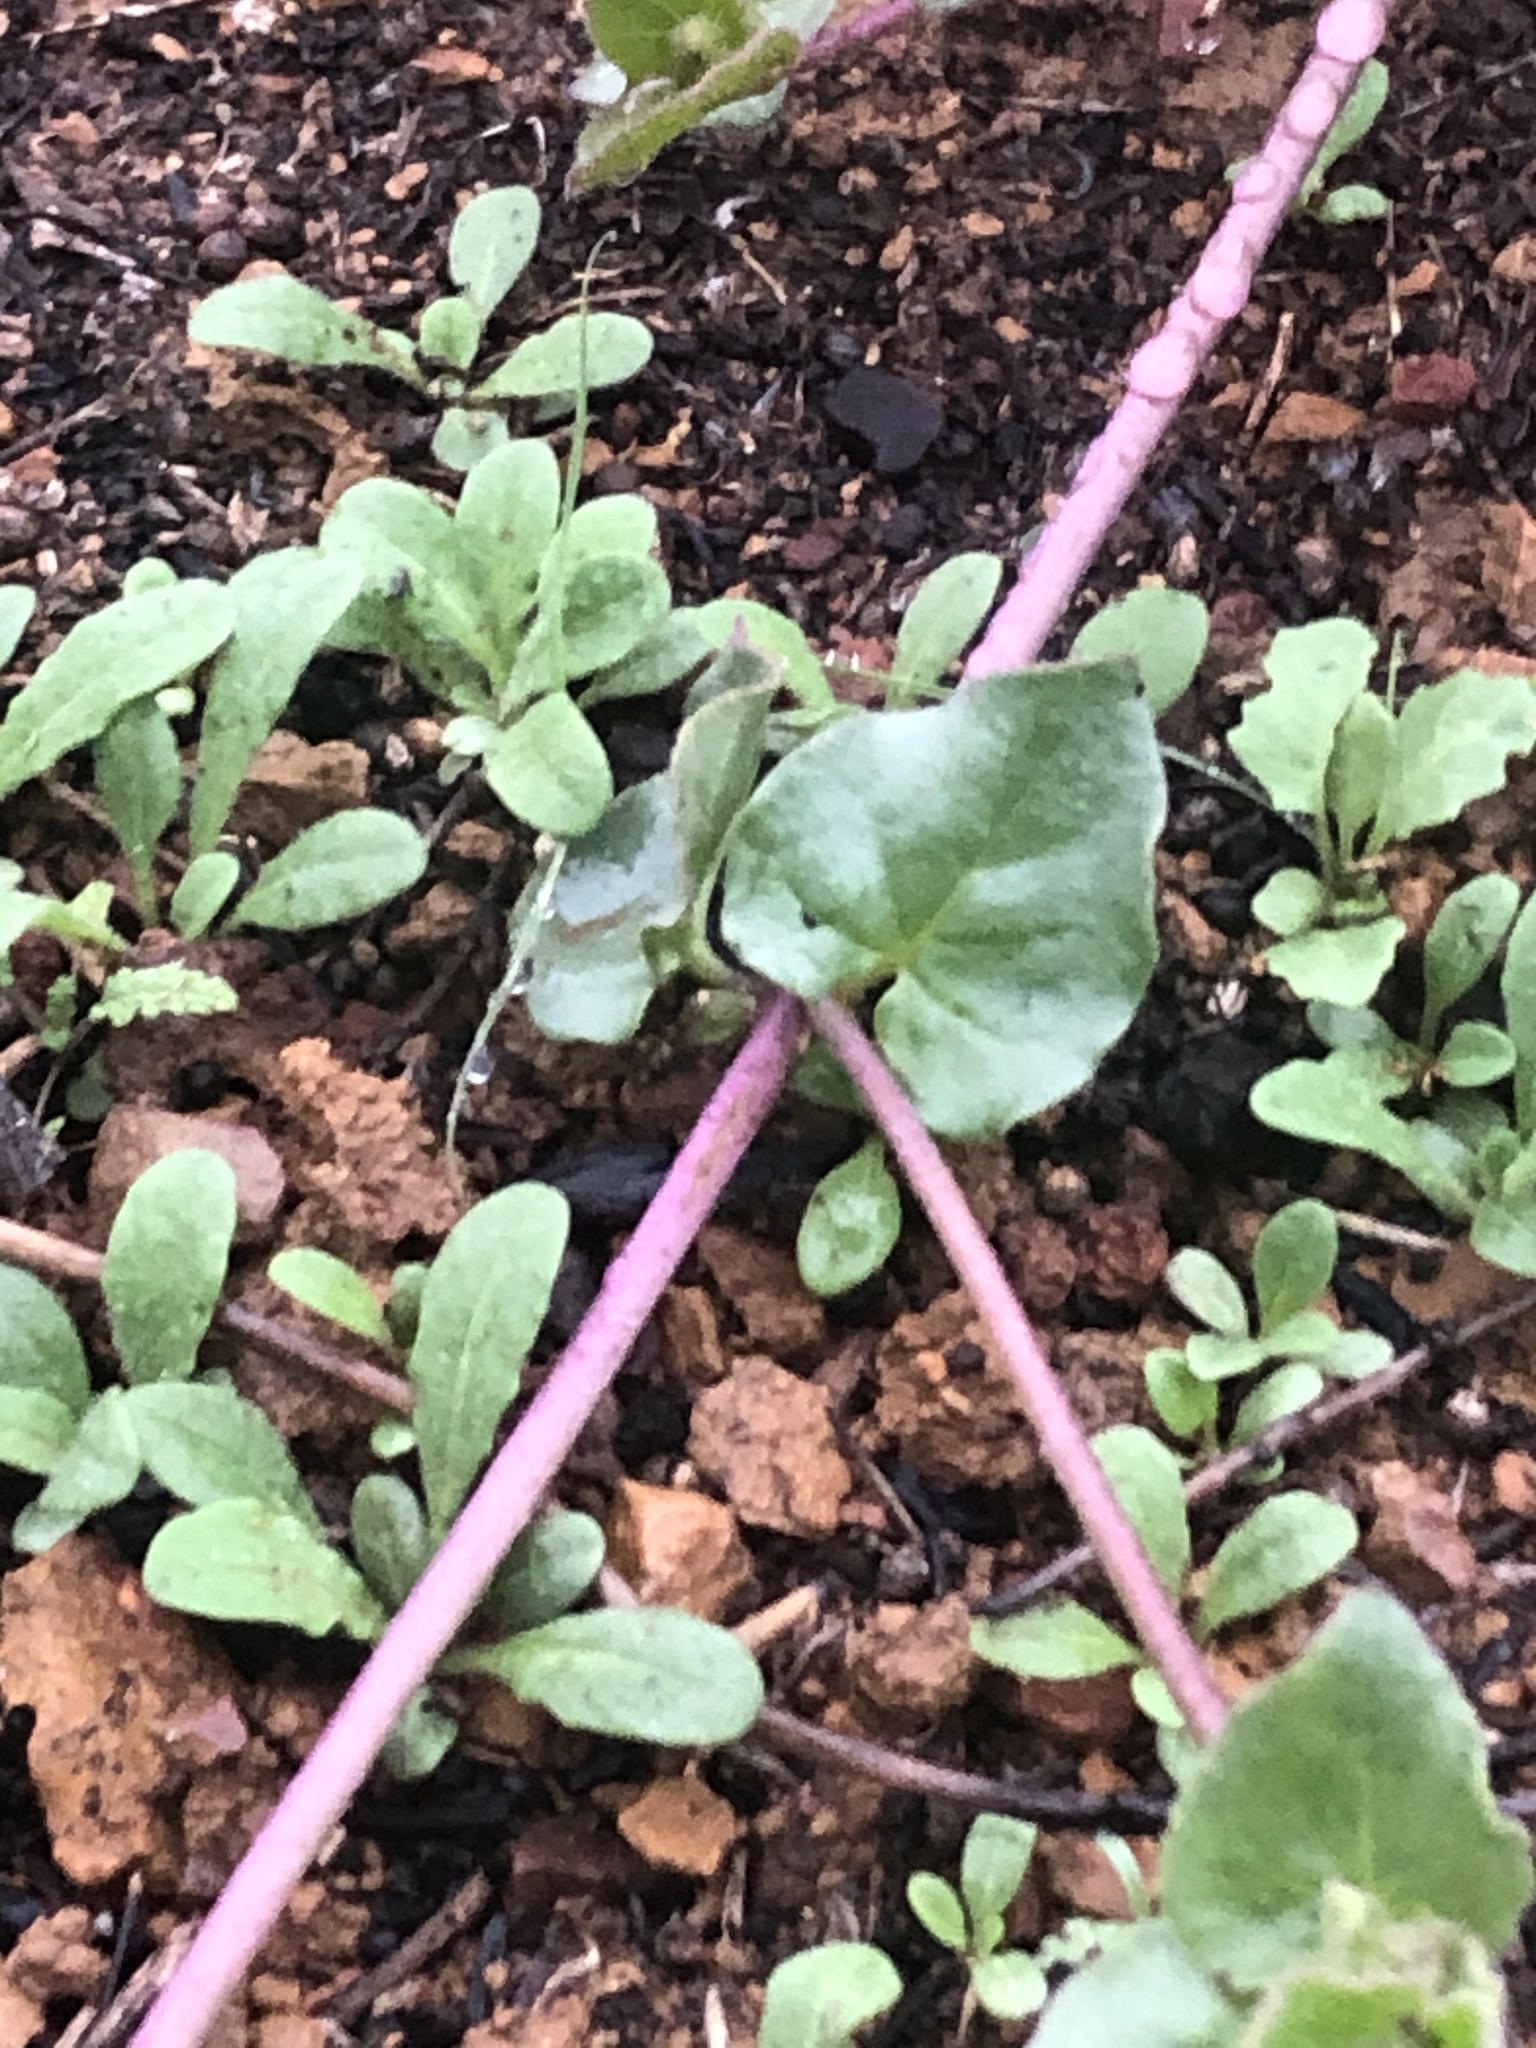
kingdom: Plantae
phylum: Tracheophyta
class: Magnoliopsida
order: Dipsacales
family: Caprifoliaceae
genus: Lonicera
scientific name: Lonicera interrupta
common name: Chaparral honeysuckle
